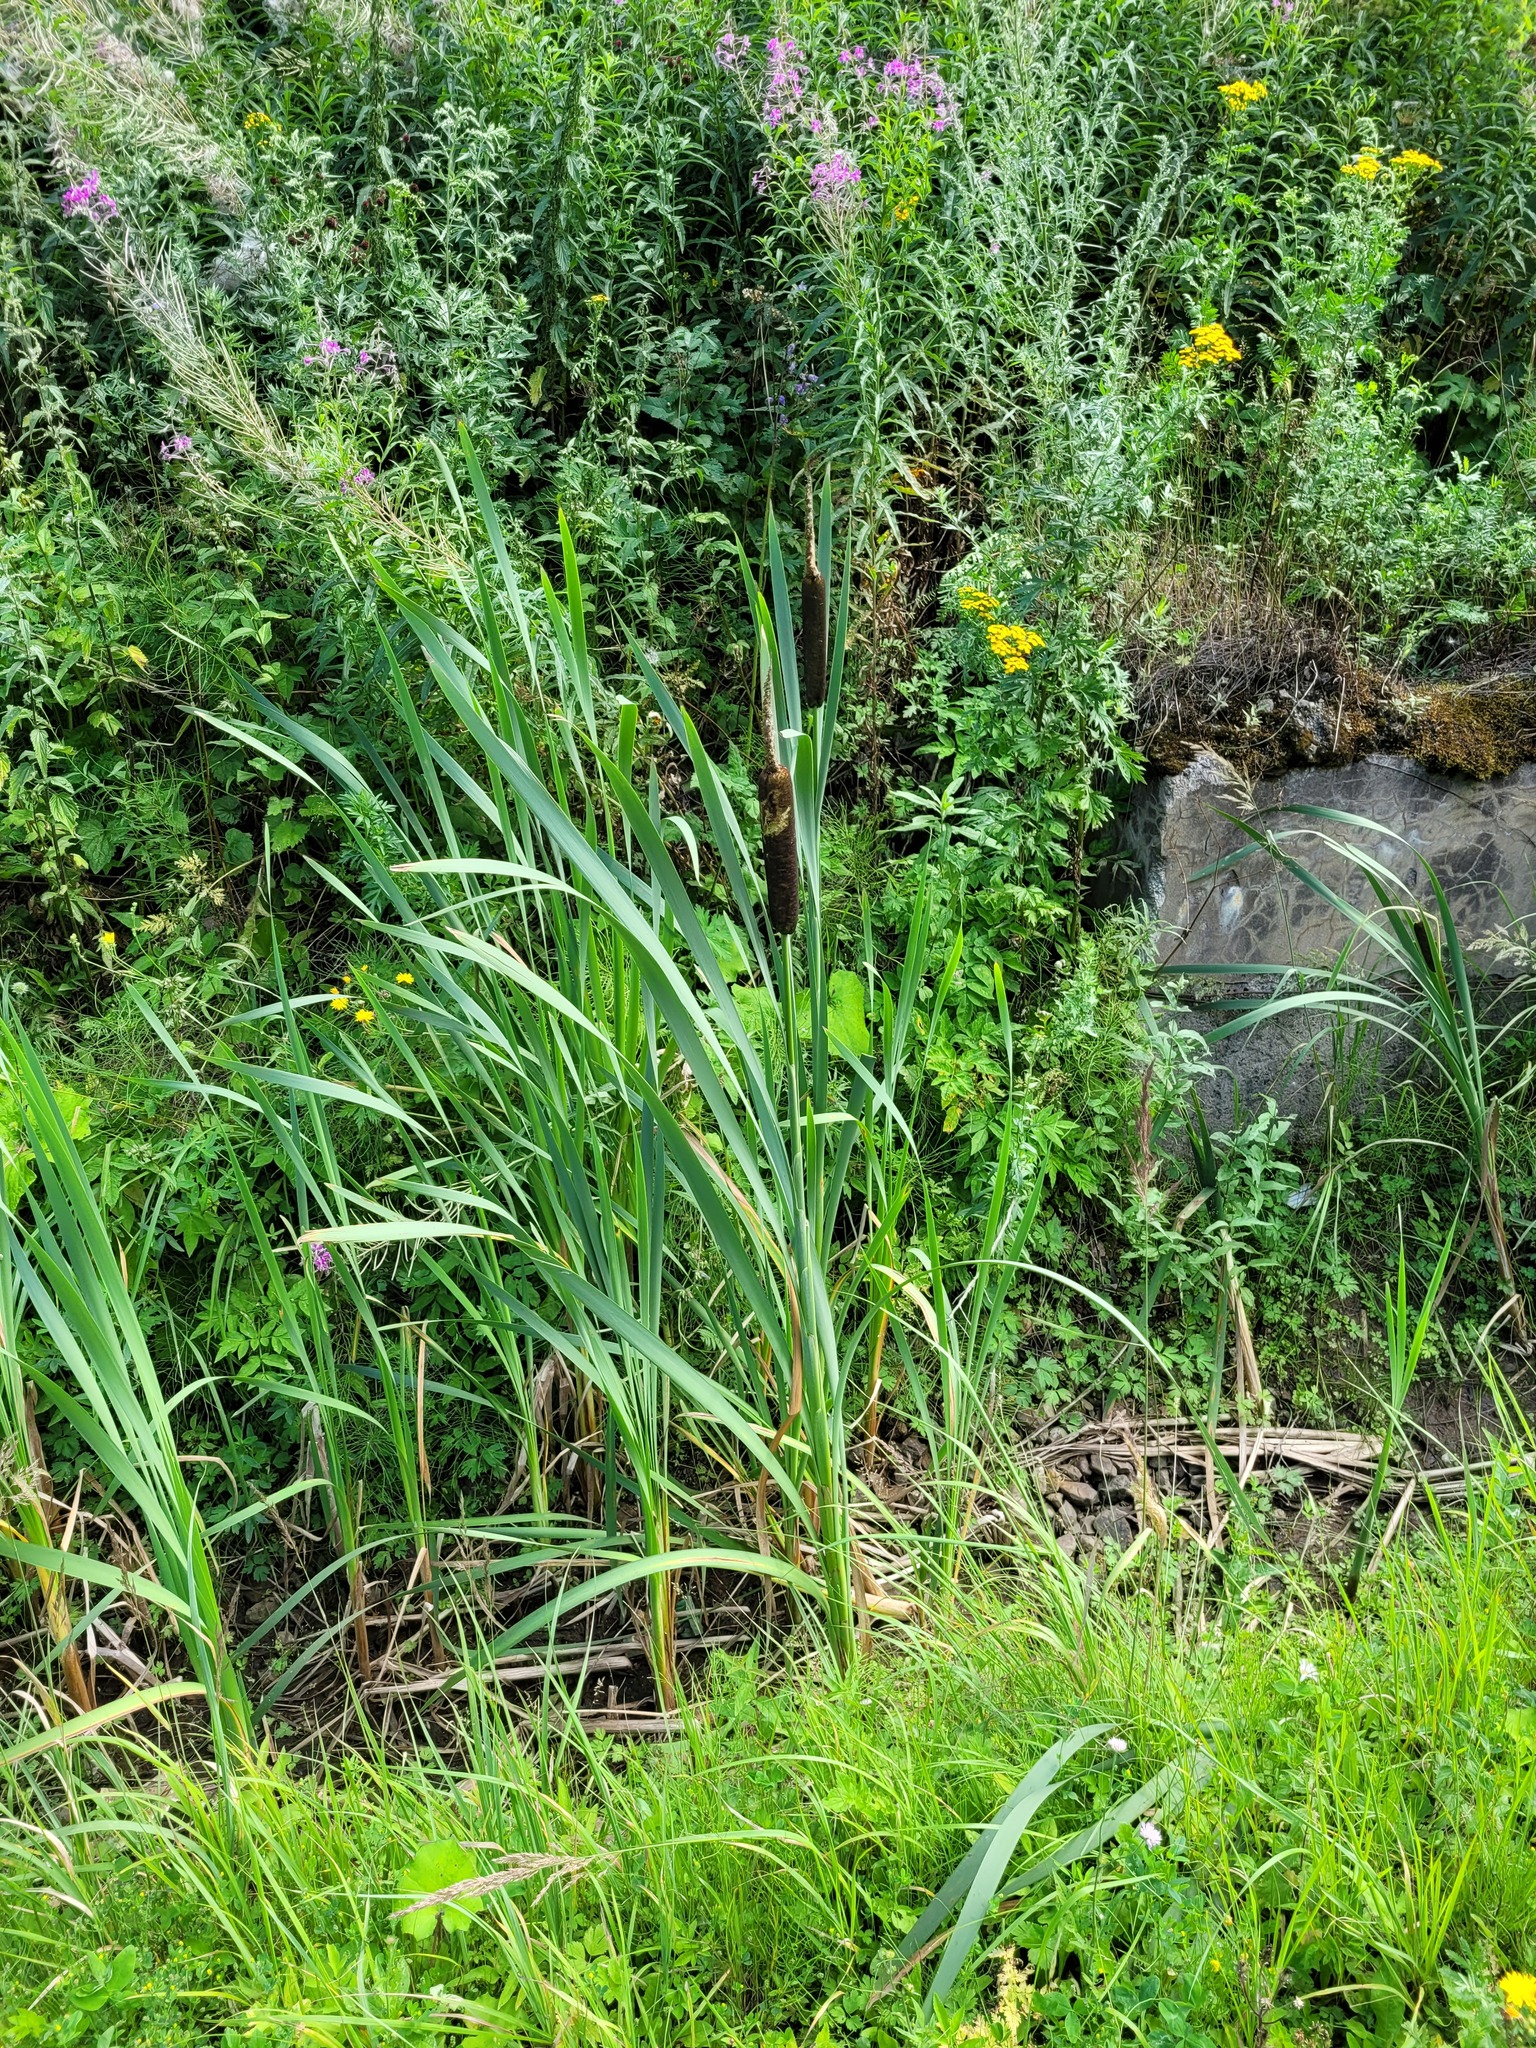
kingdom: Plantae
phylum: Tracheophyta
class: Liliopsida
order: Poales
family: Typhaceae
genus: Typha
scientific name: Typha latifolia
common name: Broadleaf cattail
